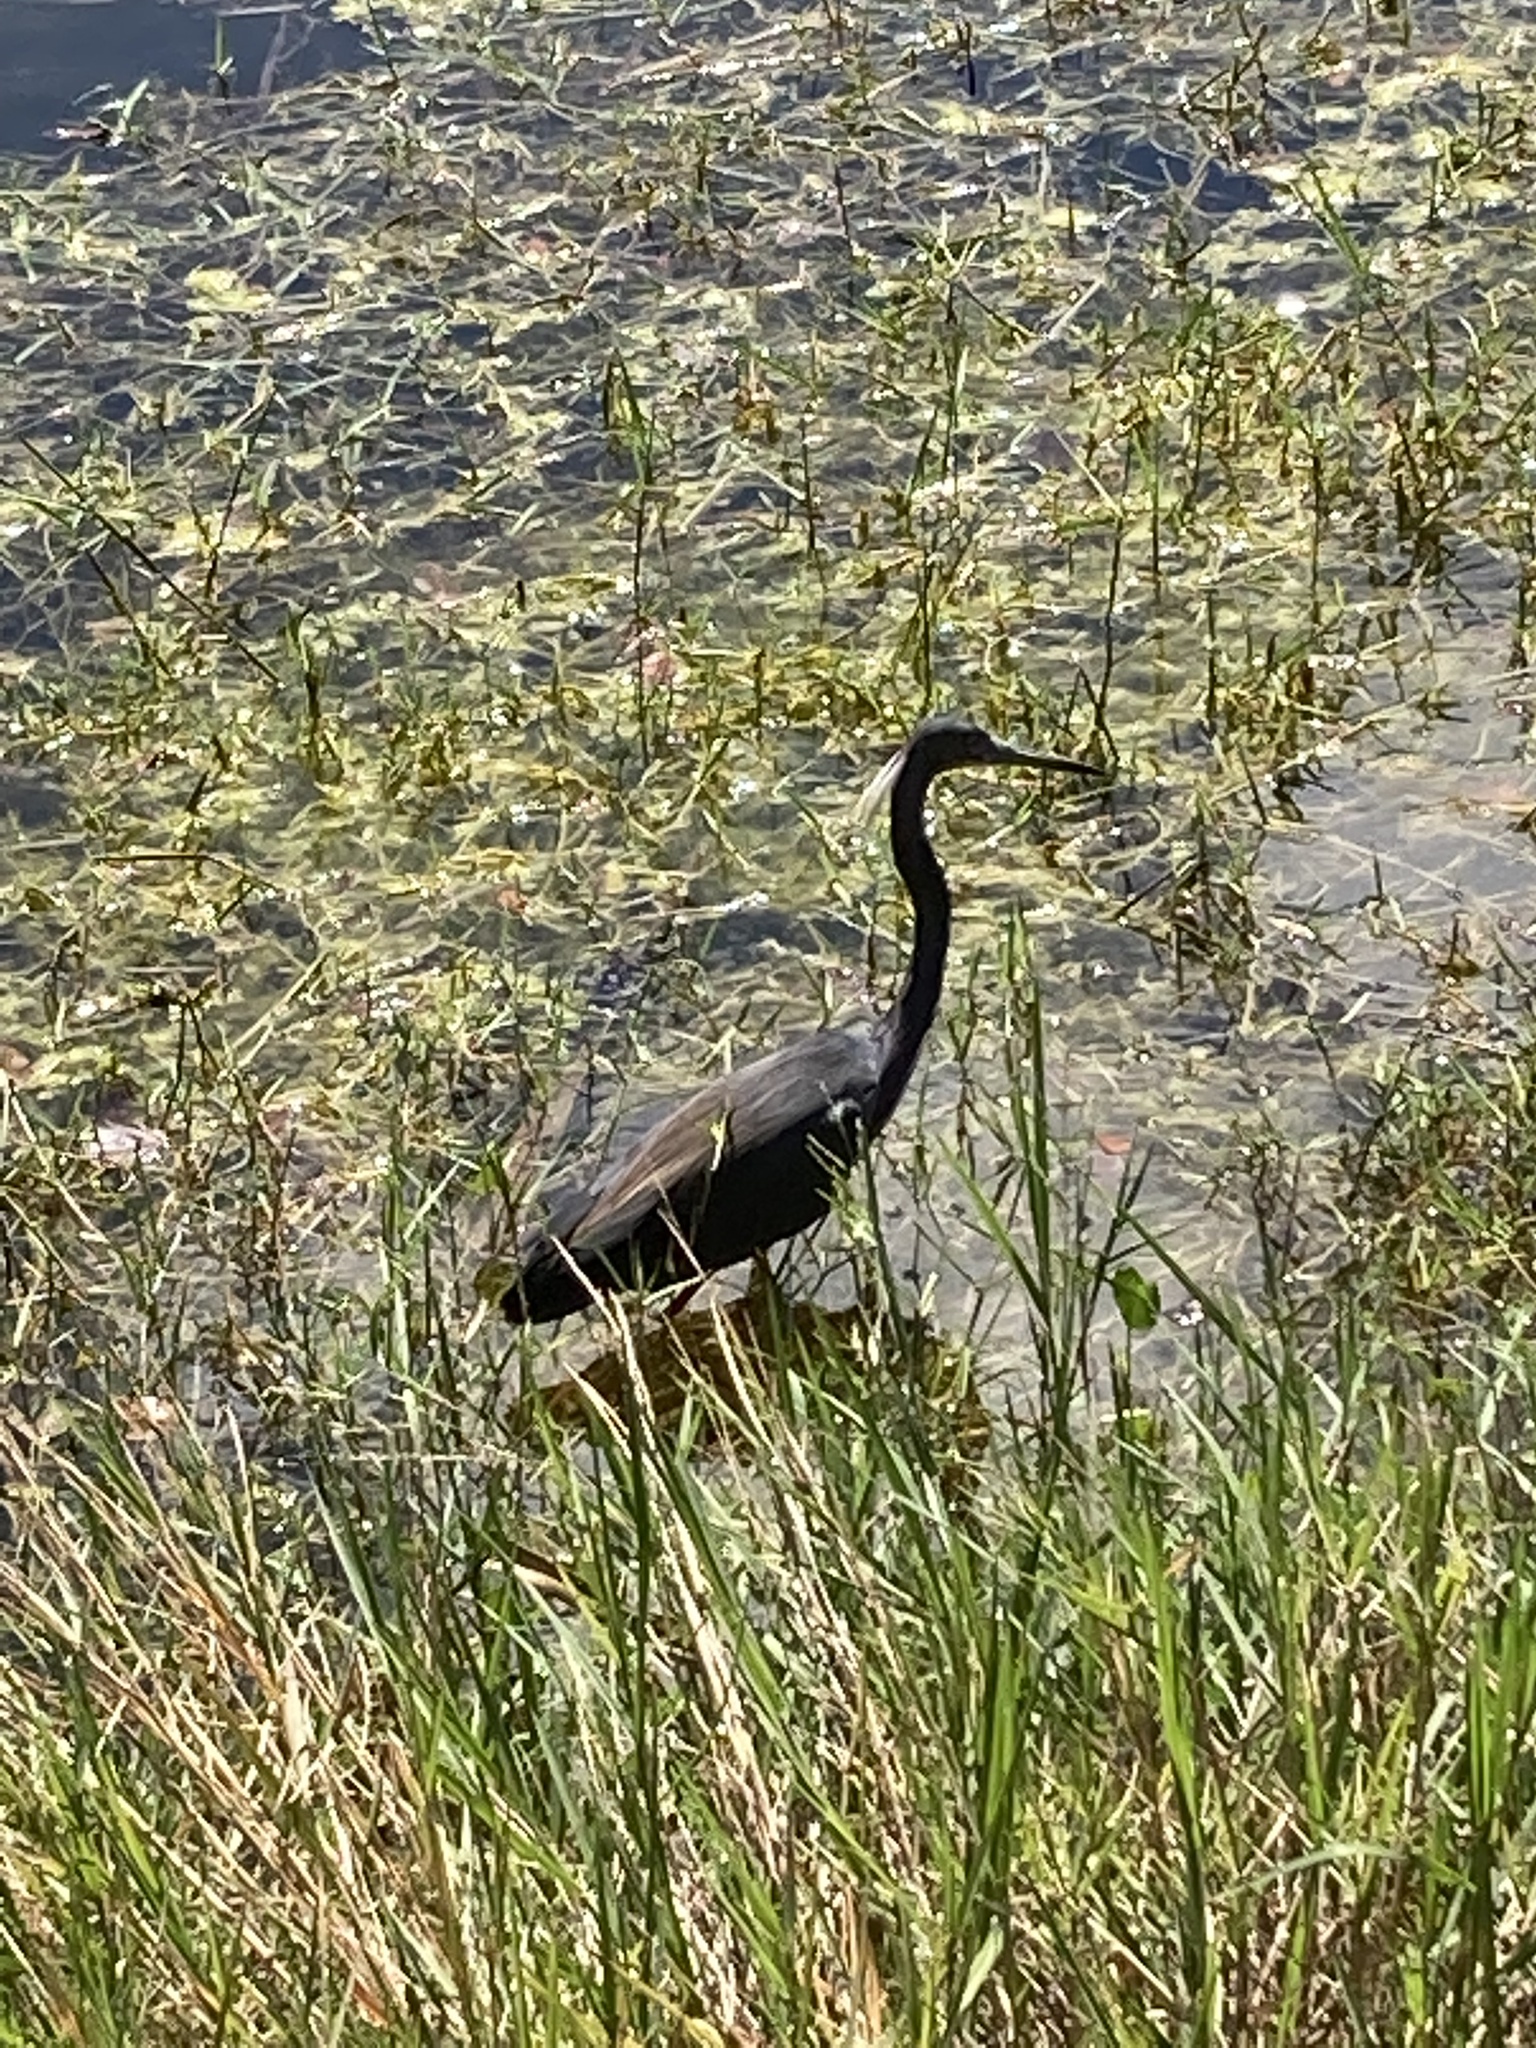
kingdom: Animalia
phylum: Chordata
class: Aves
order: Pelecaniformes
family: Ardeidae
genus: Egretta
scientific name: Egretta tricolor
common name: Tricolored heron
